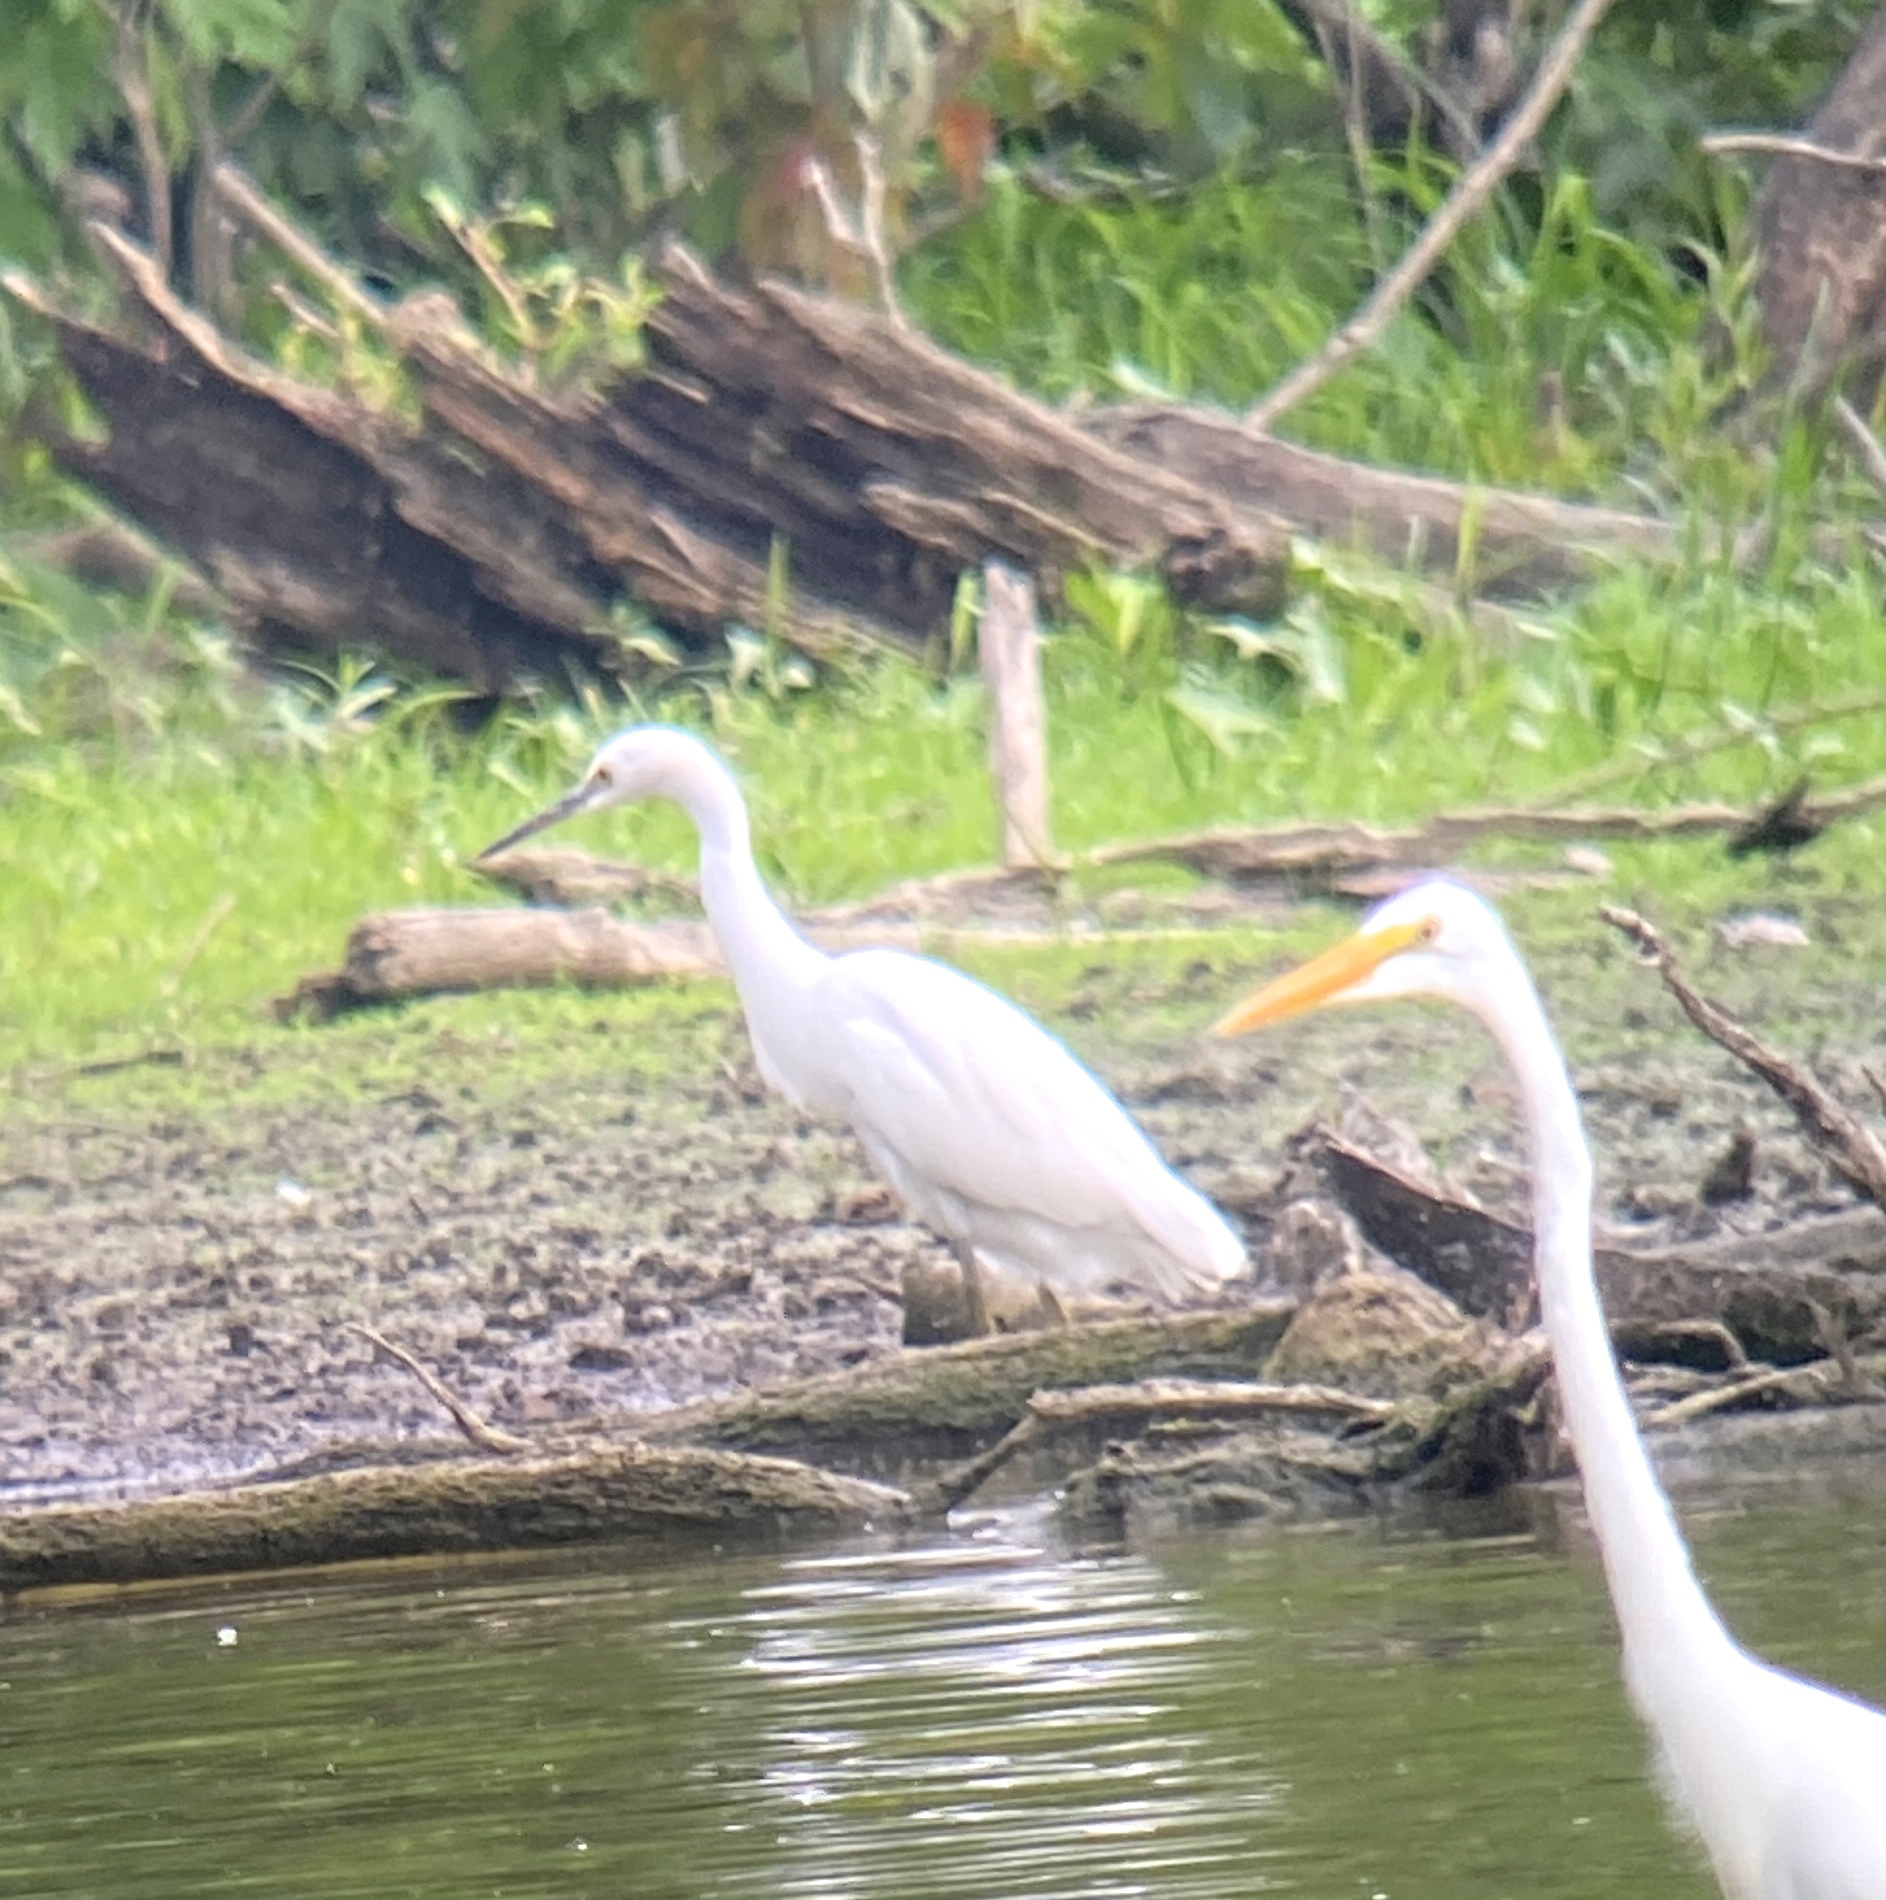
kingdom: Animalia
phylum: Chordata
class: Aves
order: Pelecaniformes
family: Ardeidae
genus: Egretta
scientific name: Egretta thula
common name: Snowy egret
